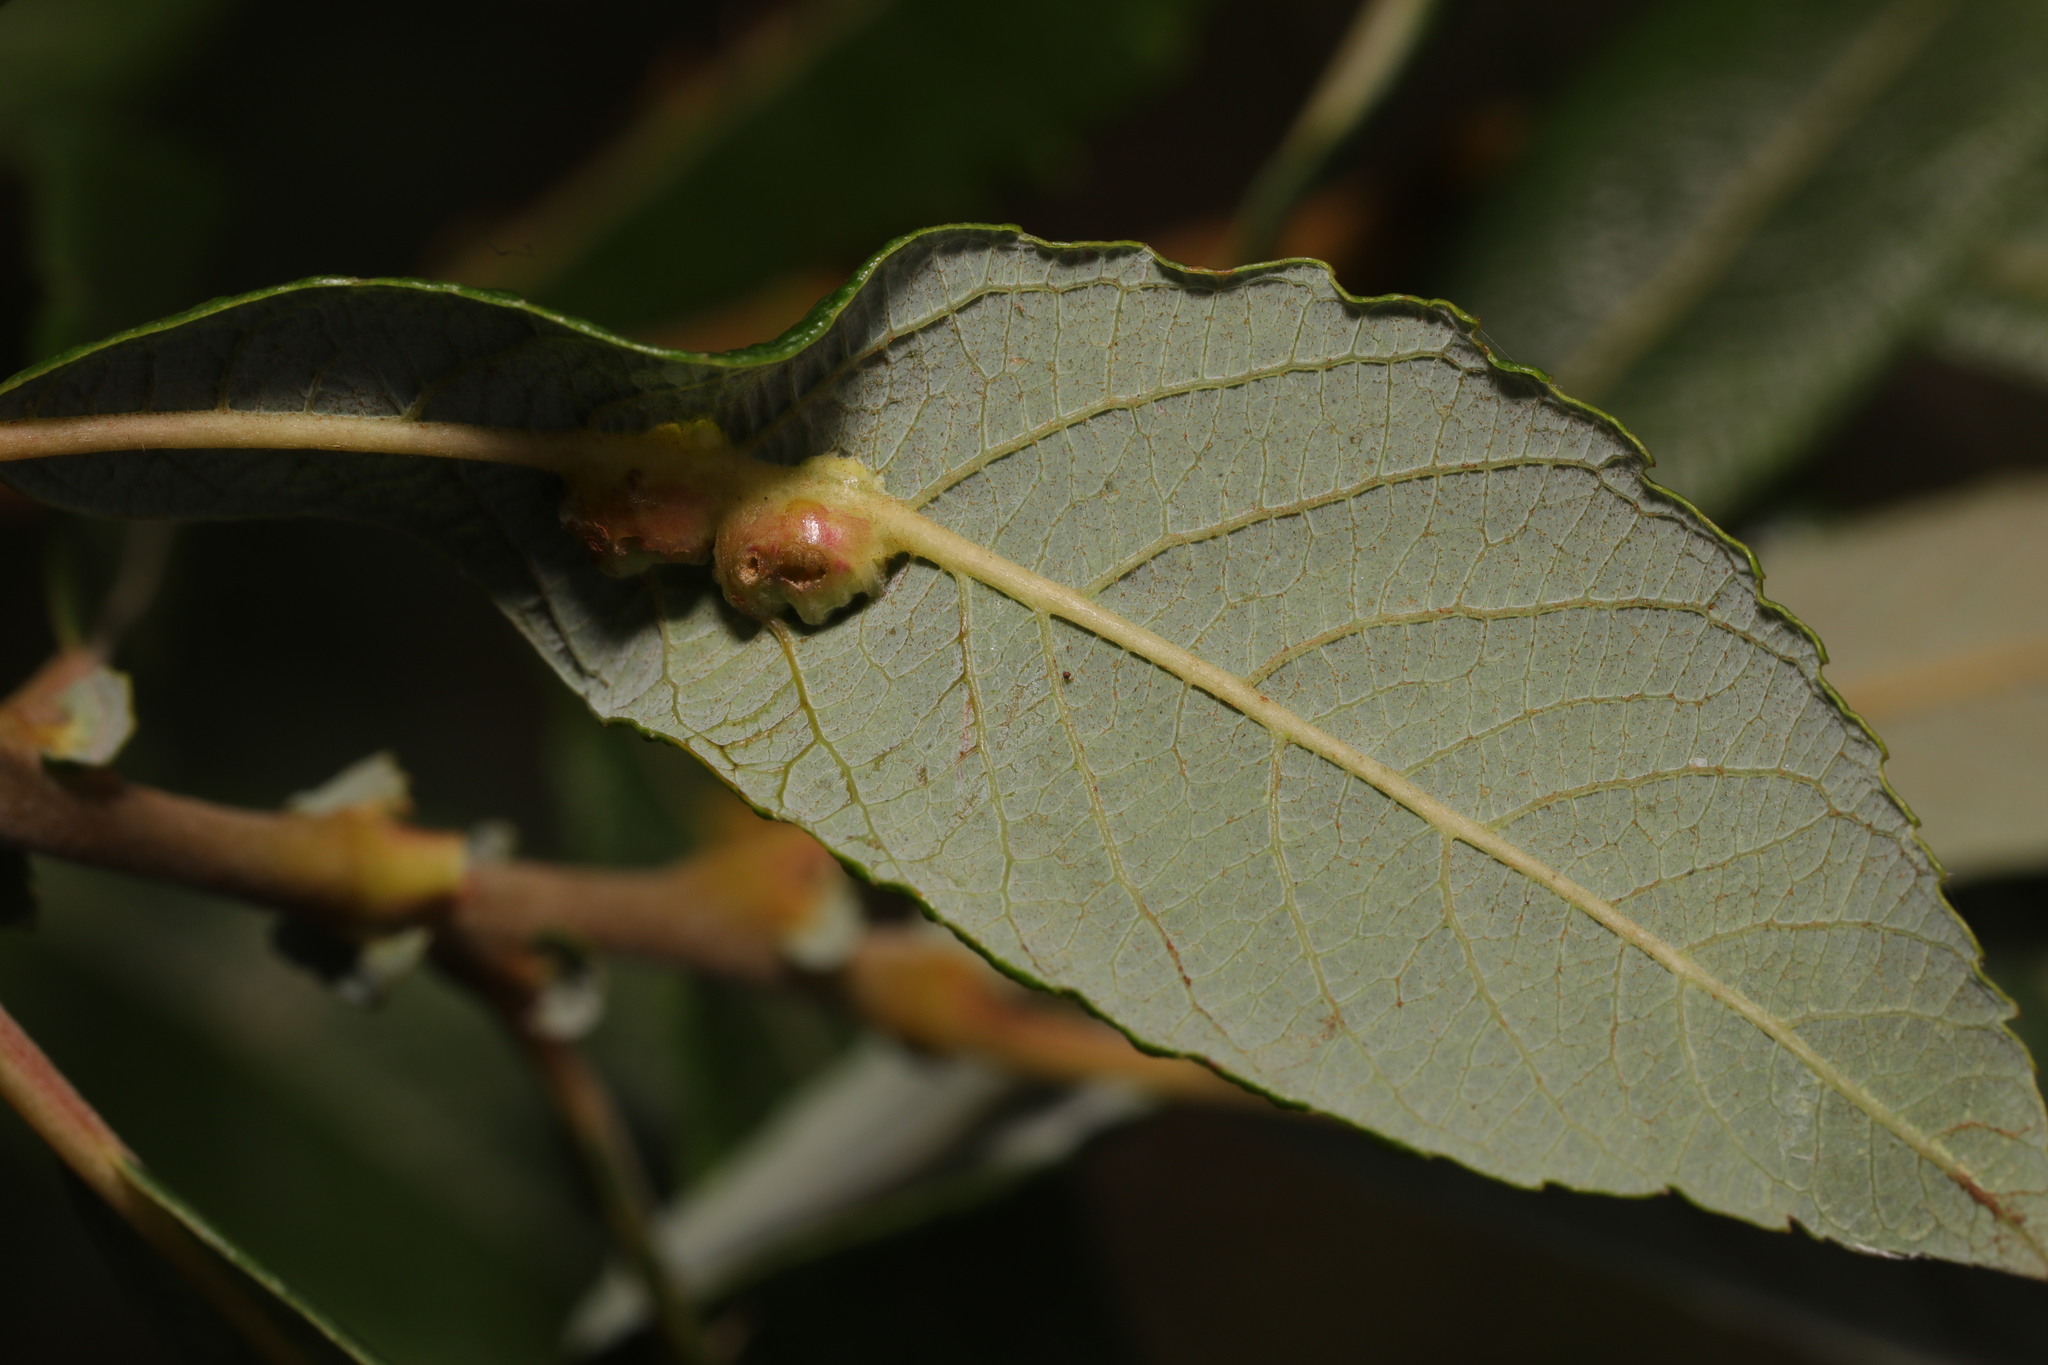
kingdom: Animalia
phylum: Arthropoda
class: Insecta
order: Diptera
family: Cecidomyiidae
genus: Iteomyia
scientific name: Iteomyia major
